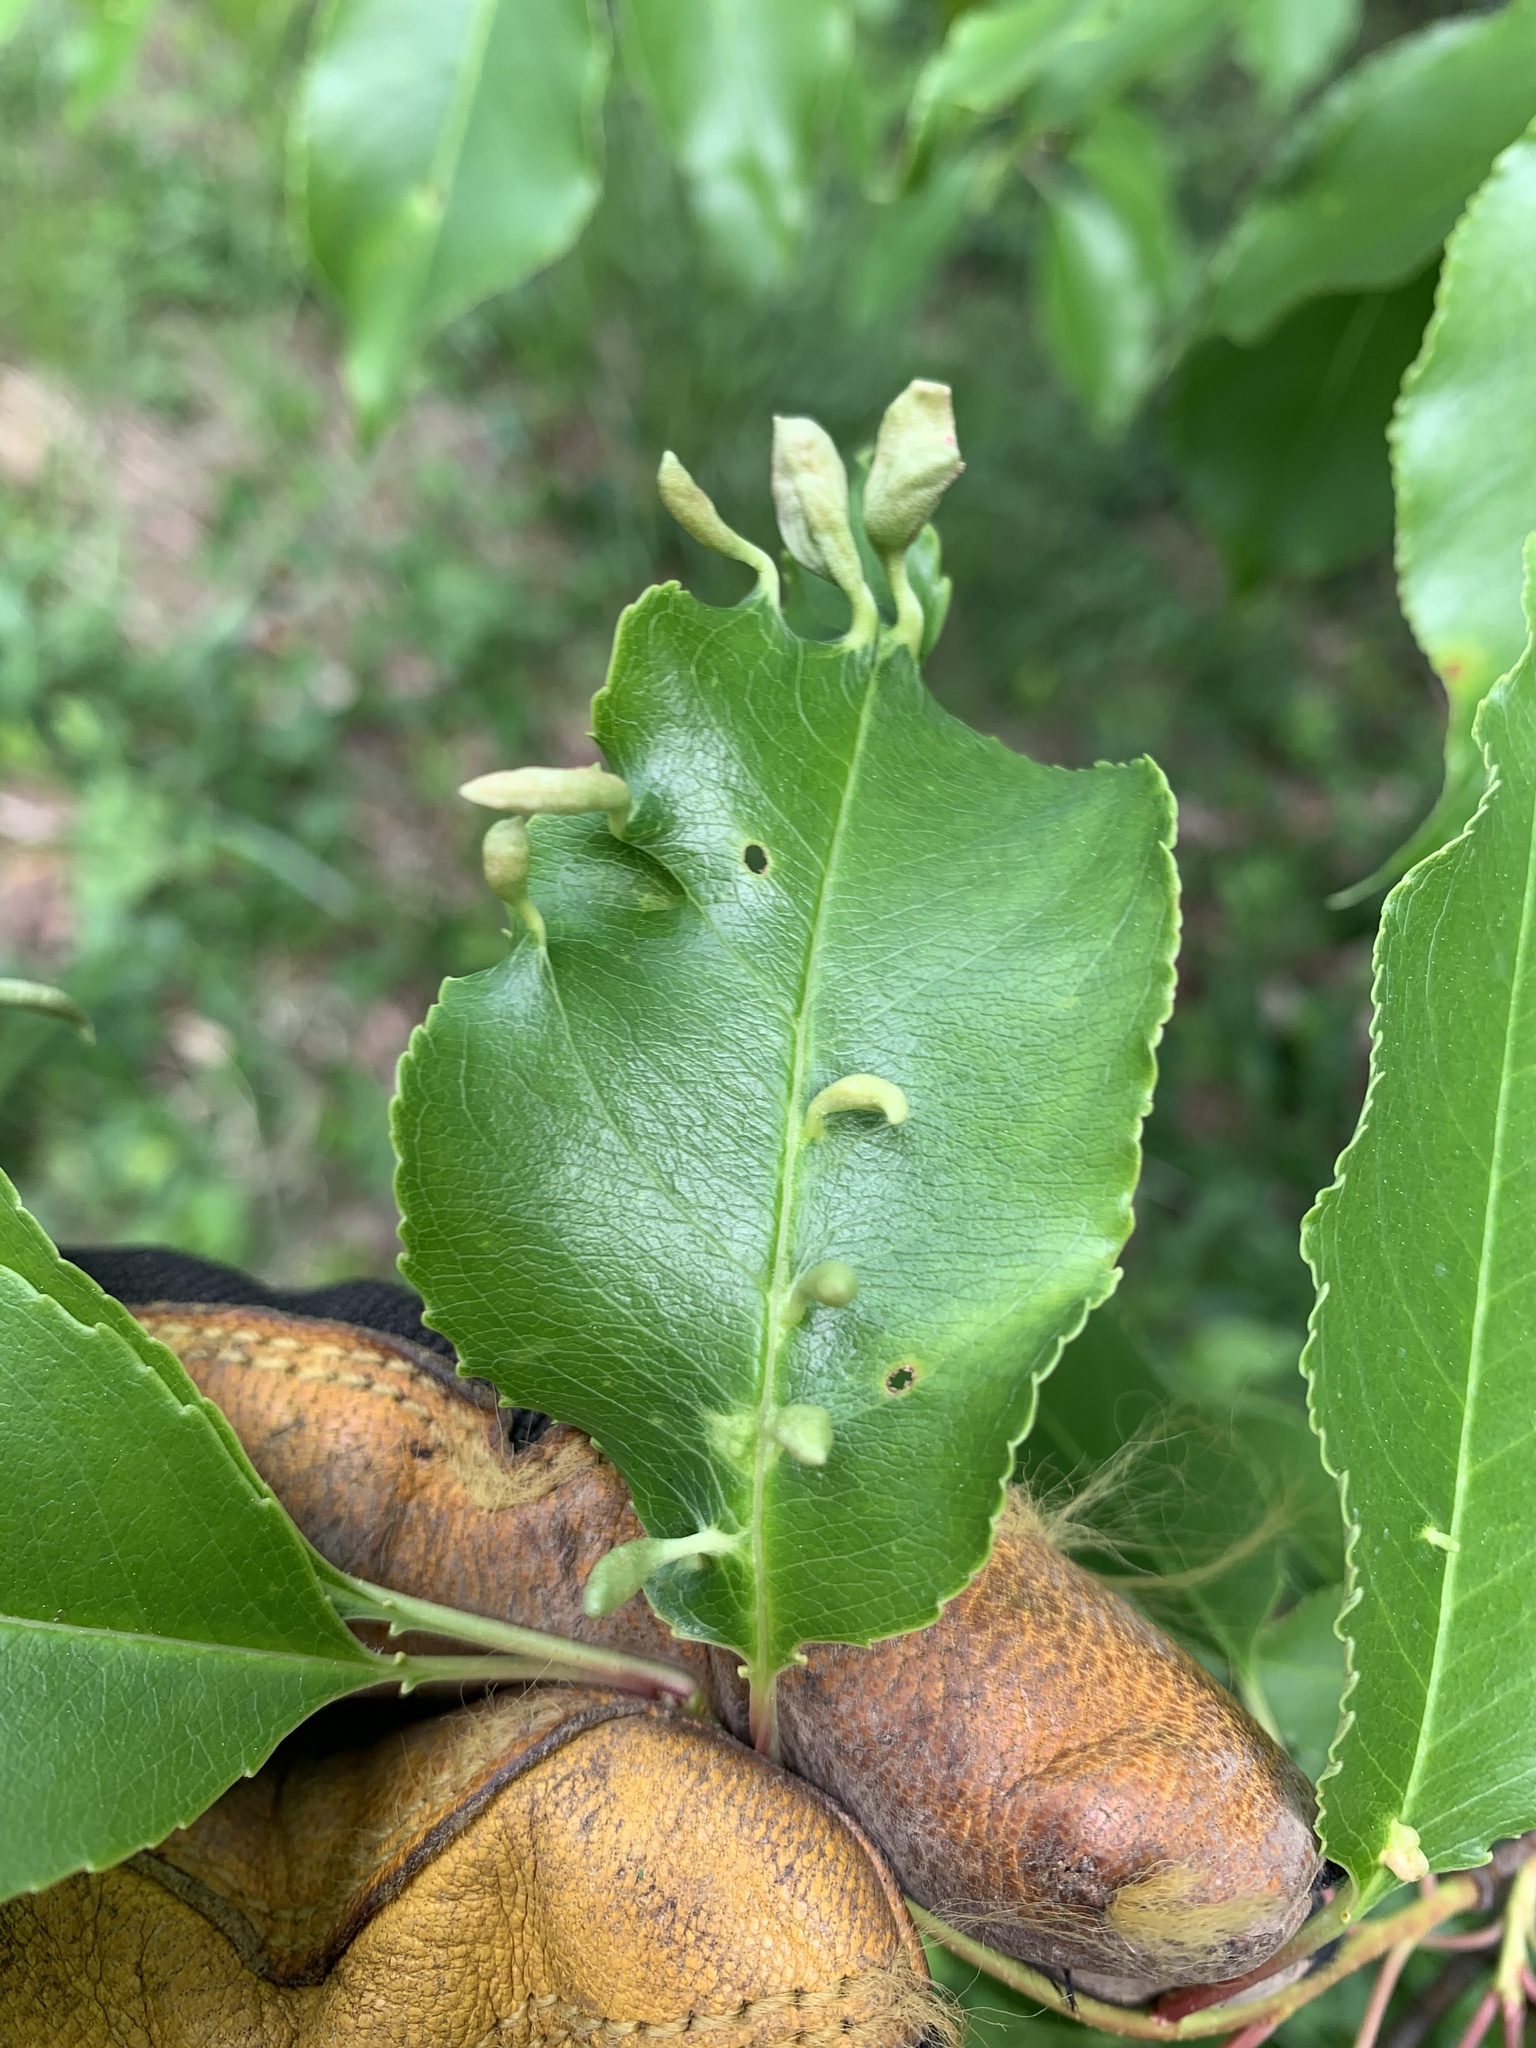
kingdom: Animalia
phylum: Arthropoda
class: Arachnida
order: Trombidiformes
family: Eriophyidae
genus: Eriophyes
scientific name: Eriophyes
